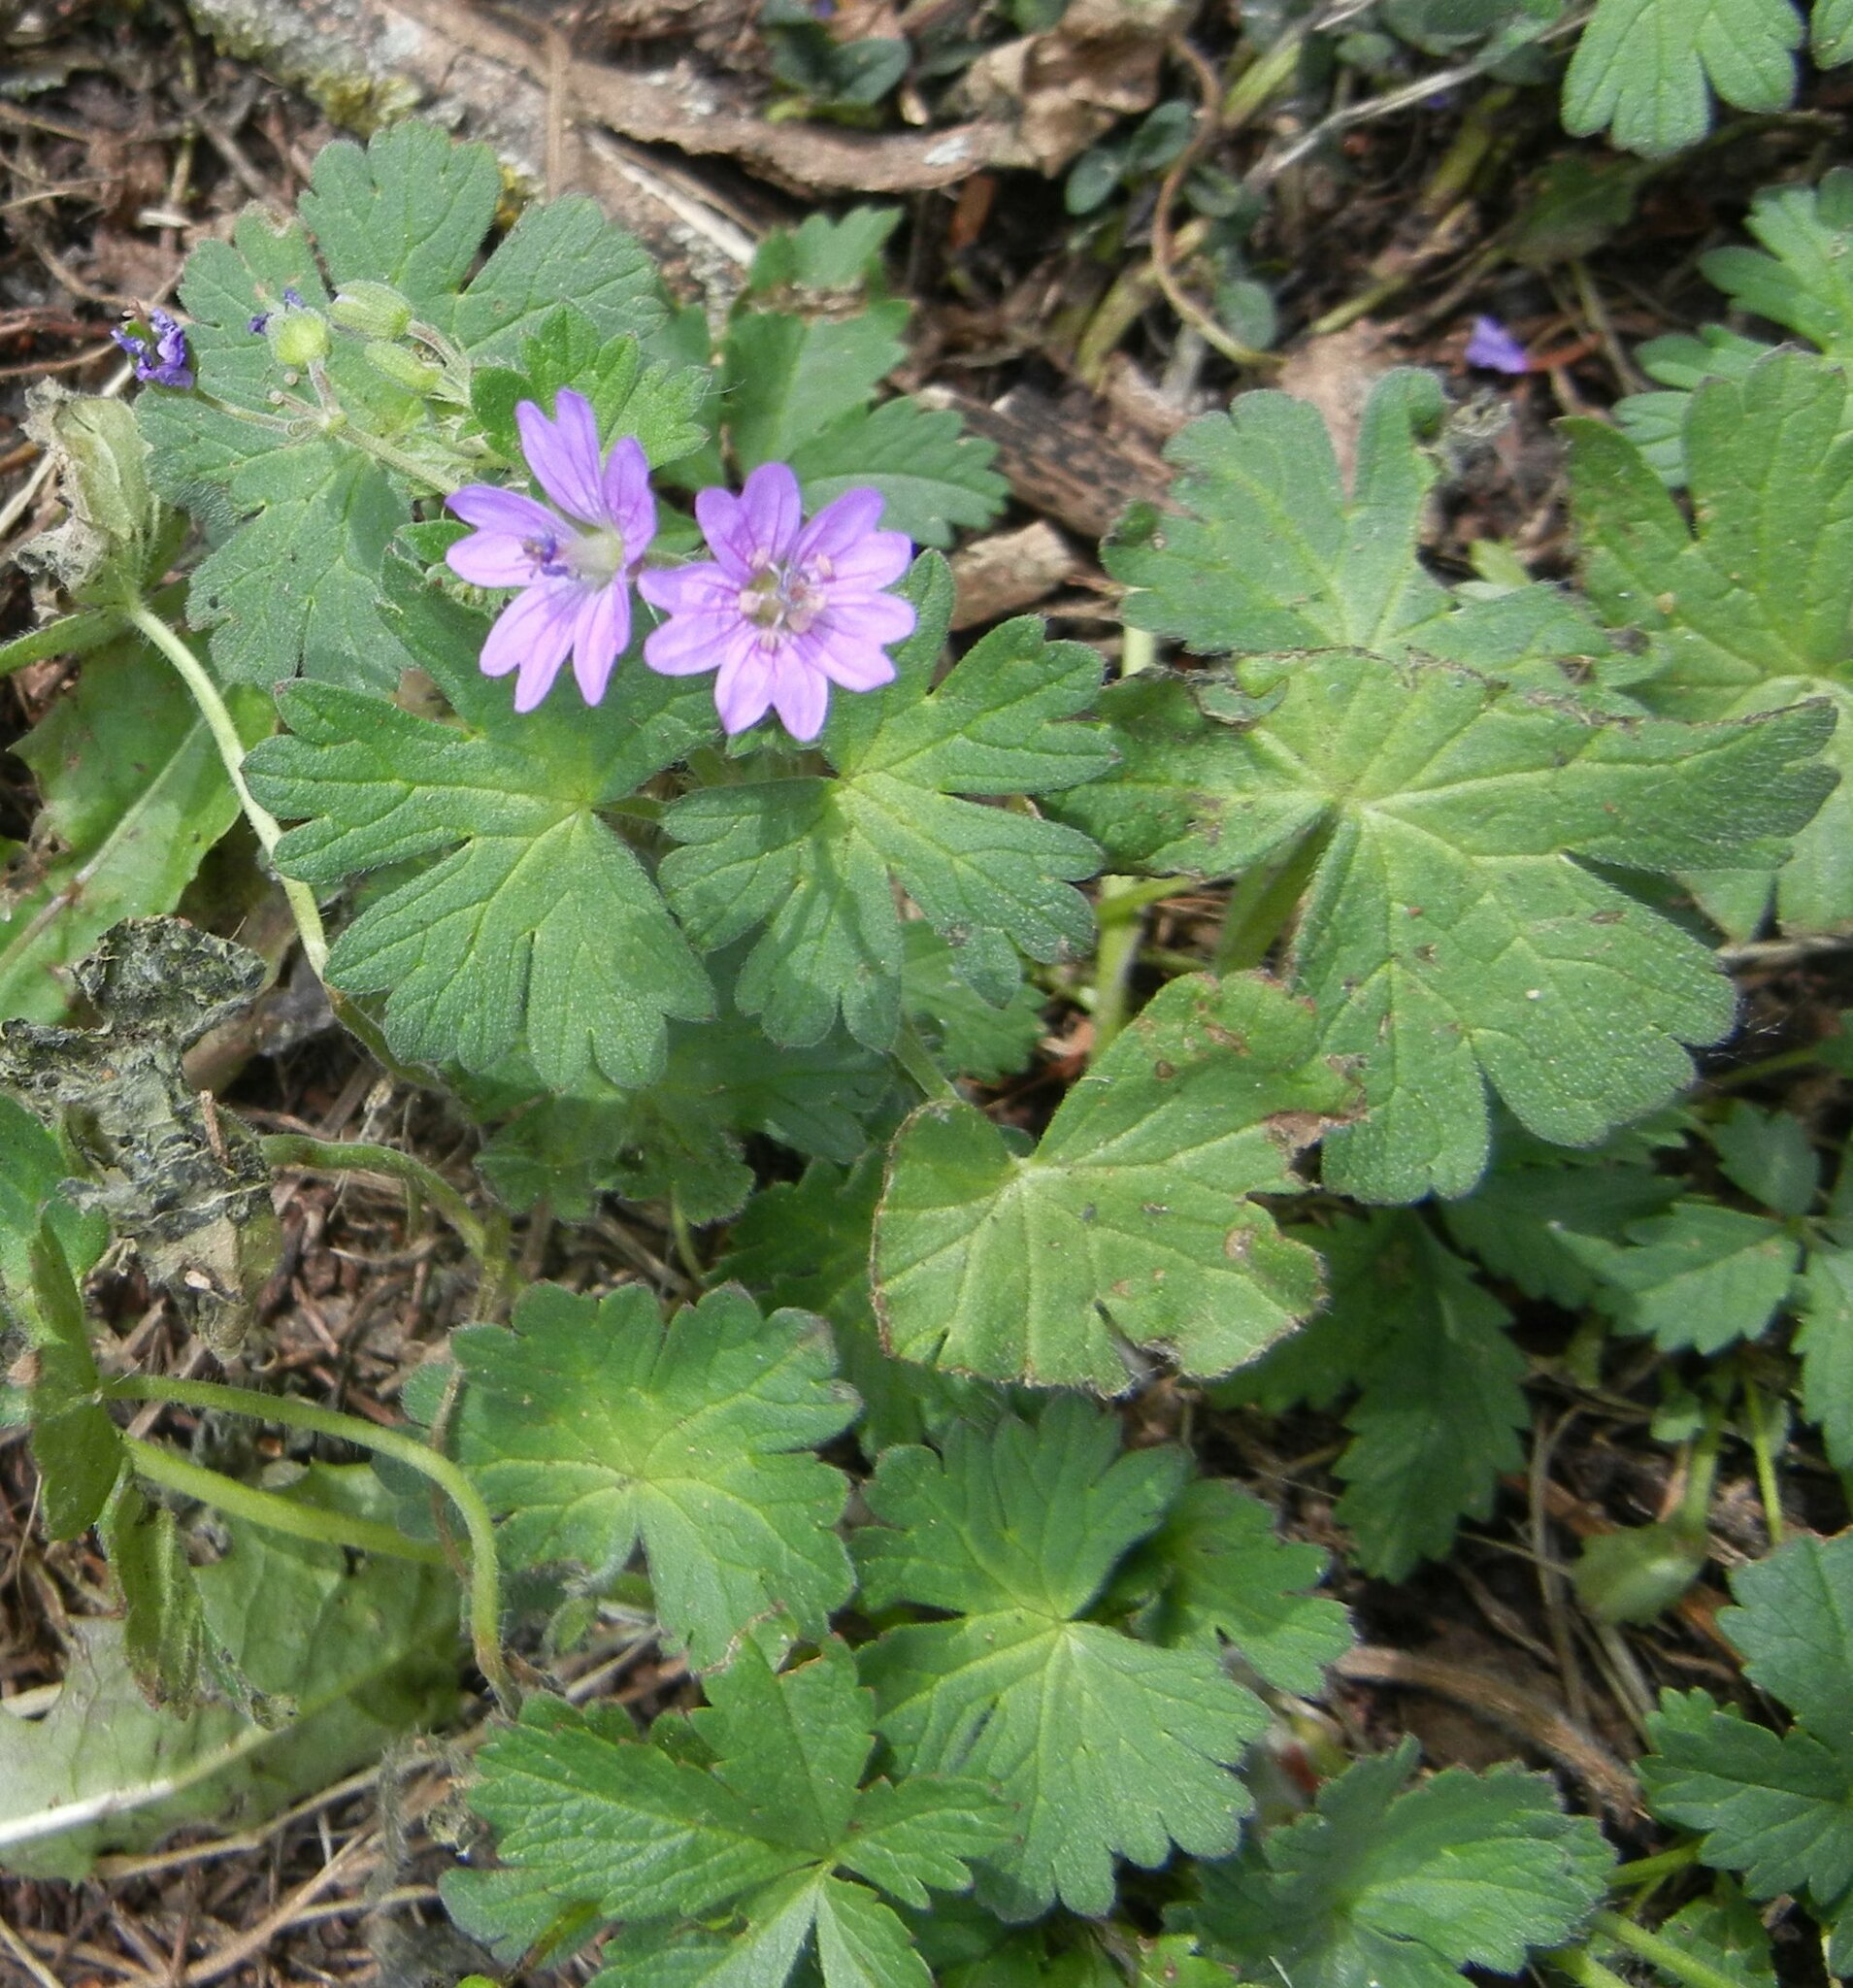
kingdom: Plantae
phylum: Tracheophyta
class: Magnoliopsida
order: Geraniales
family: Geraniaceae
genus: Geranium
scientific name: Geranium molle
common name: Dove's-foot crane's-bill
